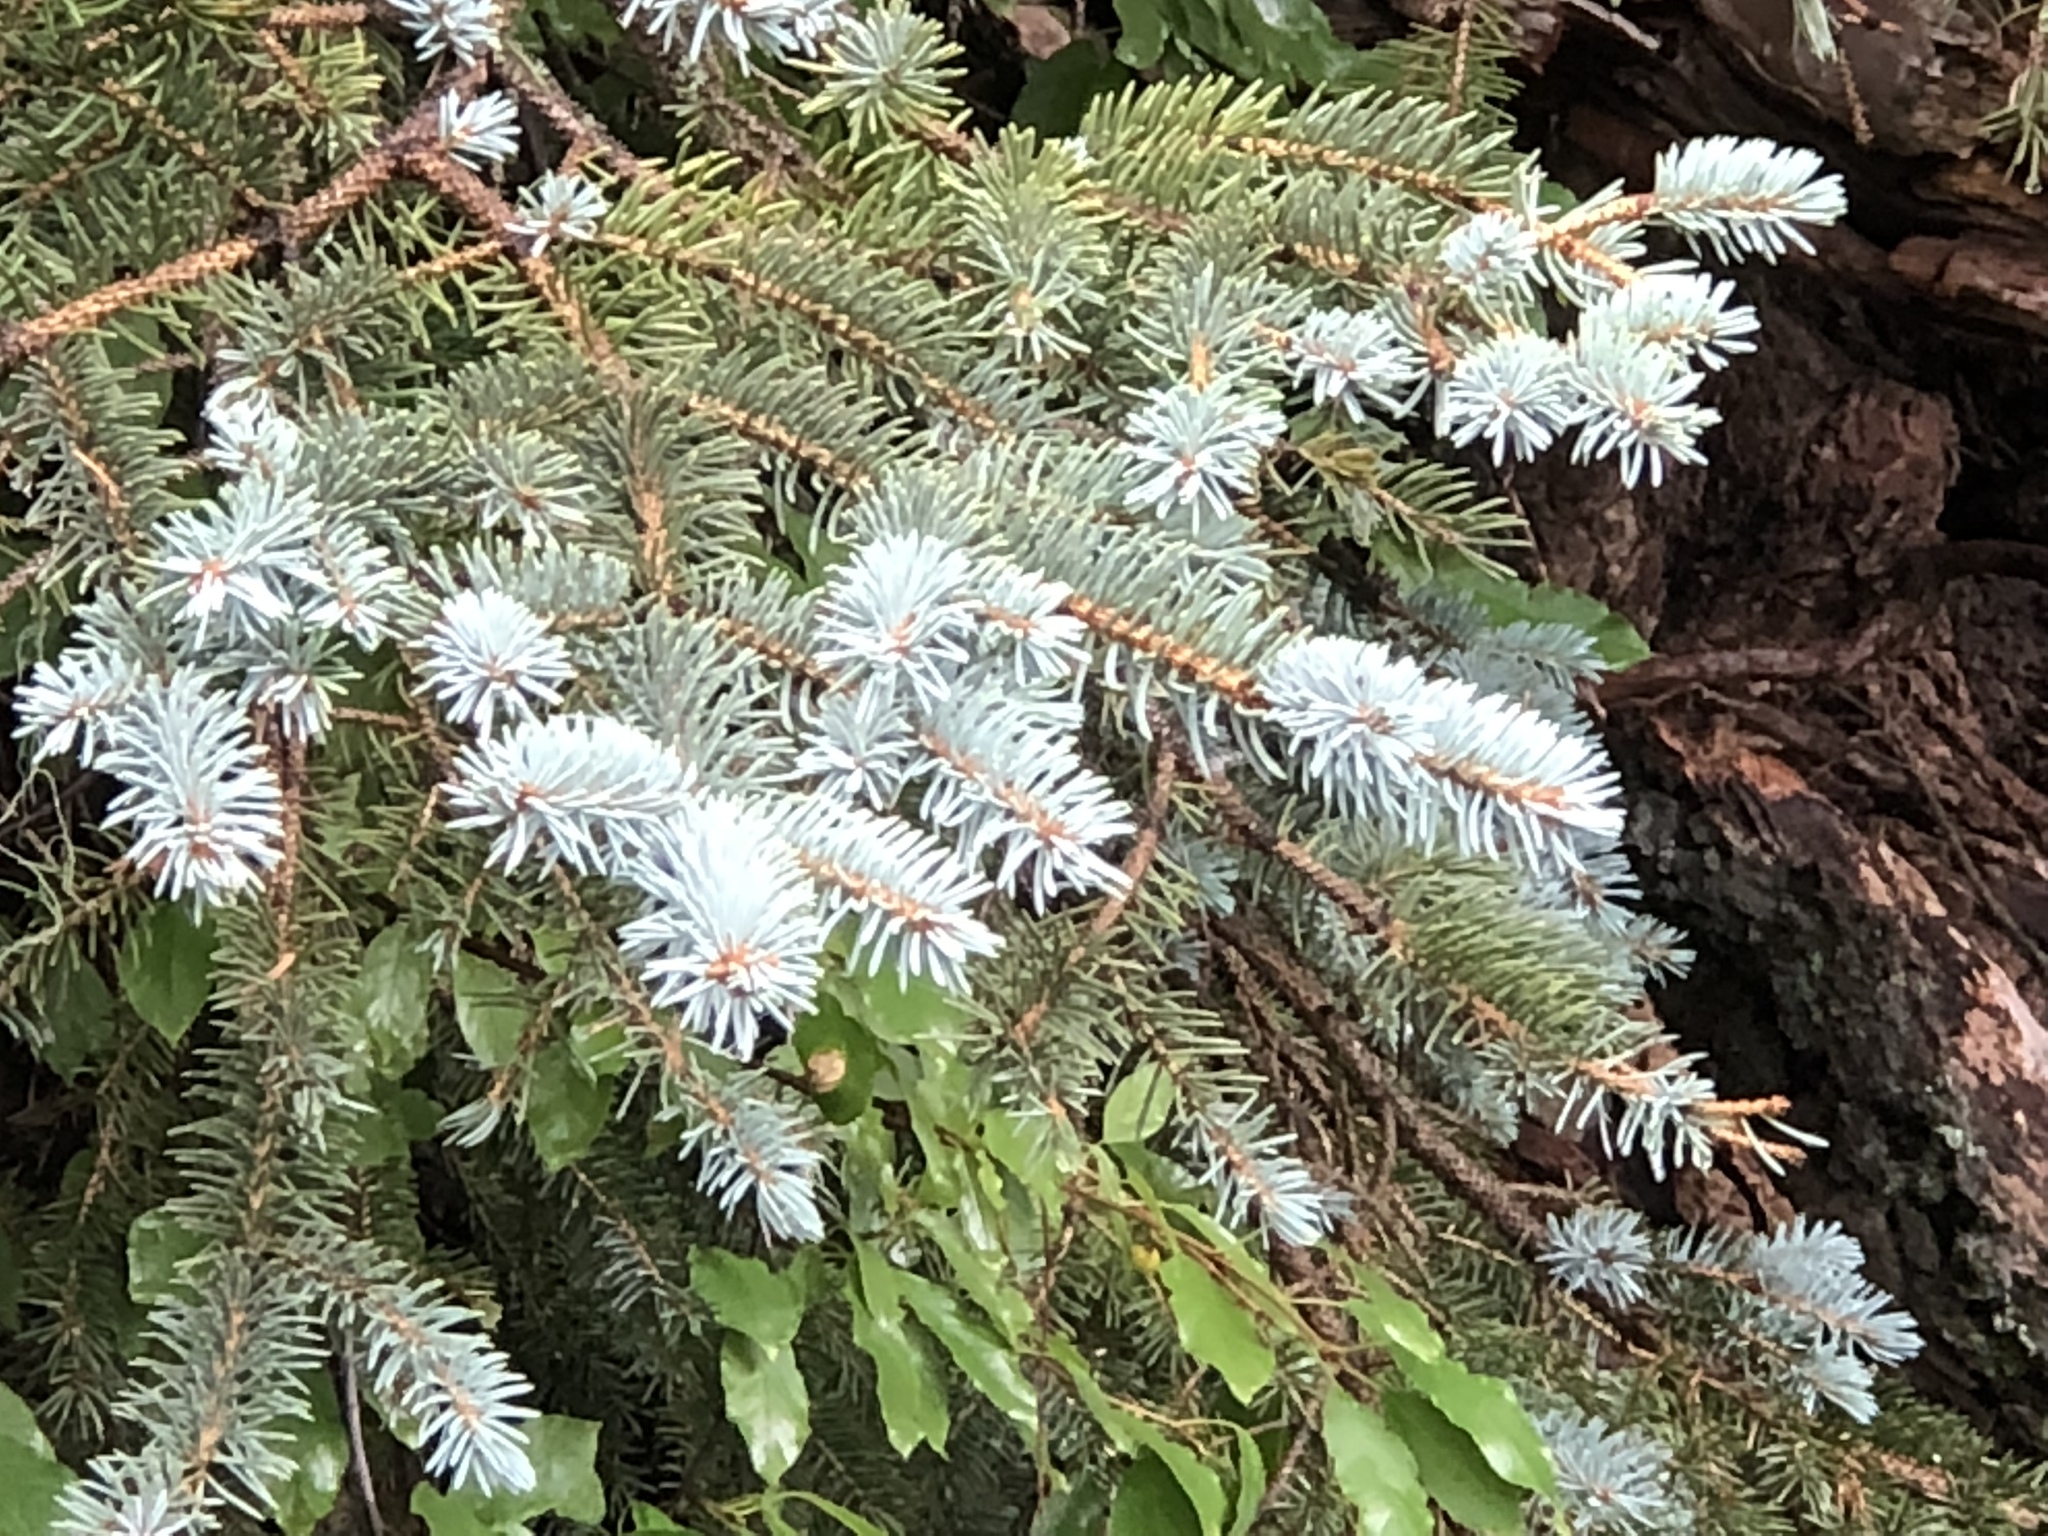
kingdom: Plantae
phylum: Tracheophyta
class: Pinopsida
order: Pinales
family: Pinaceae
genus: Picea
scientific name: Picea pungens
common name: Colorado spruce
